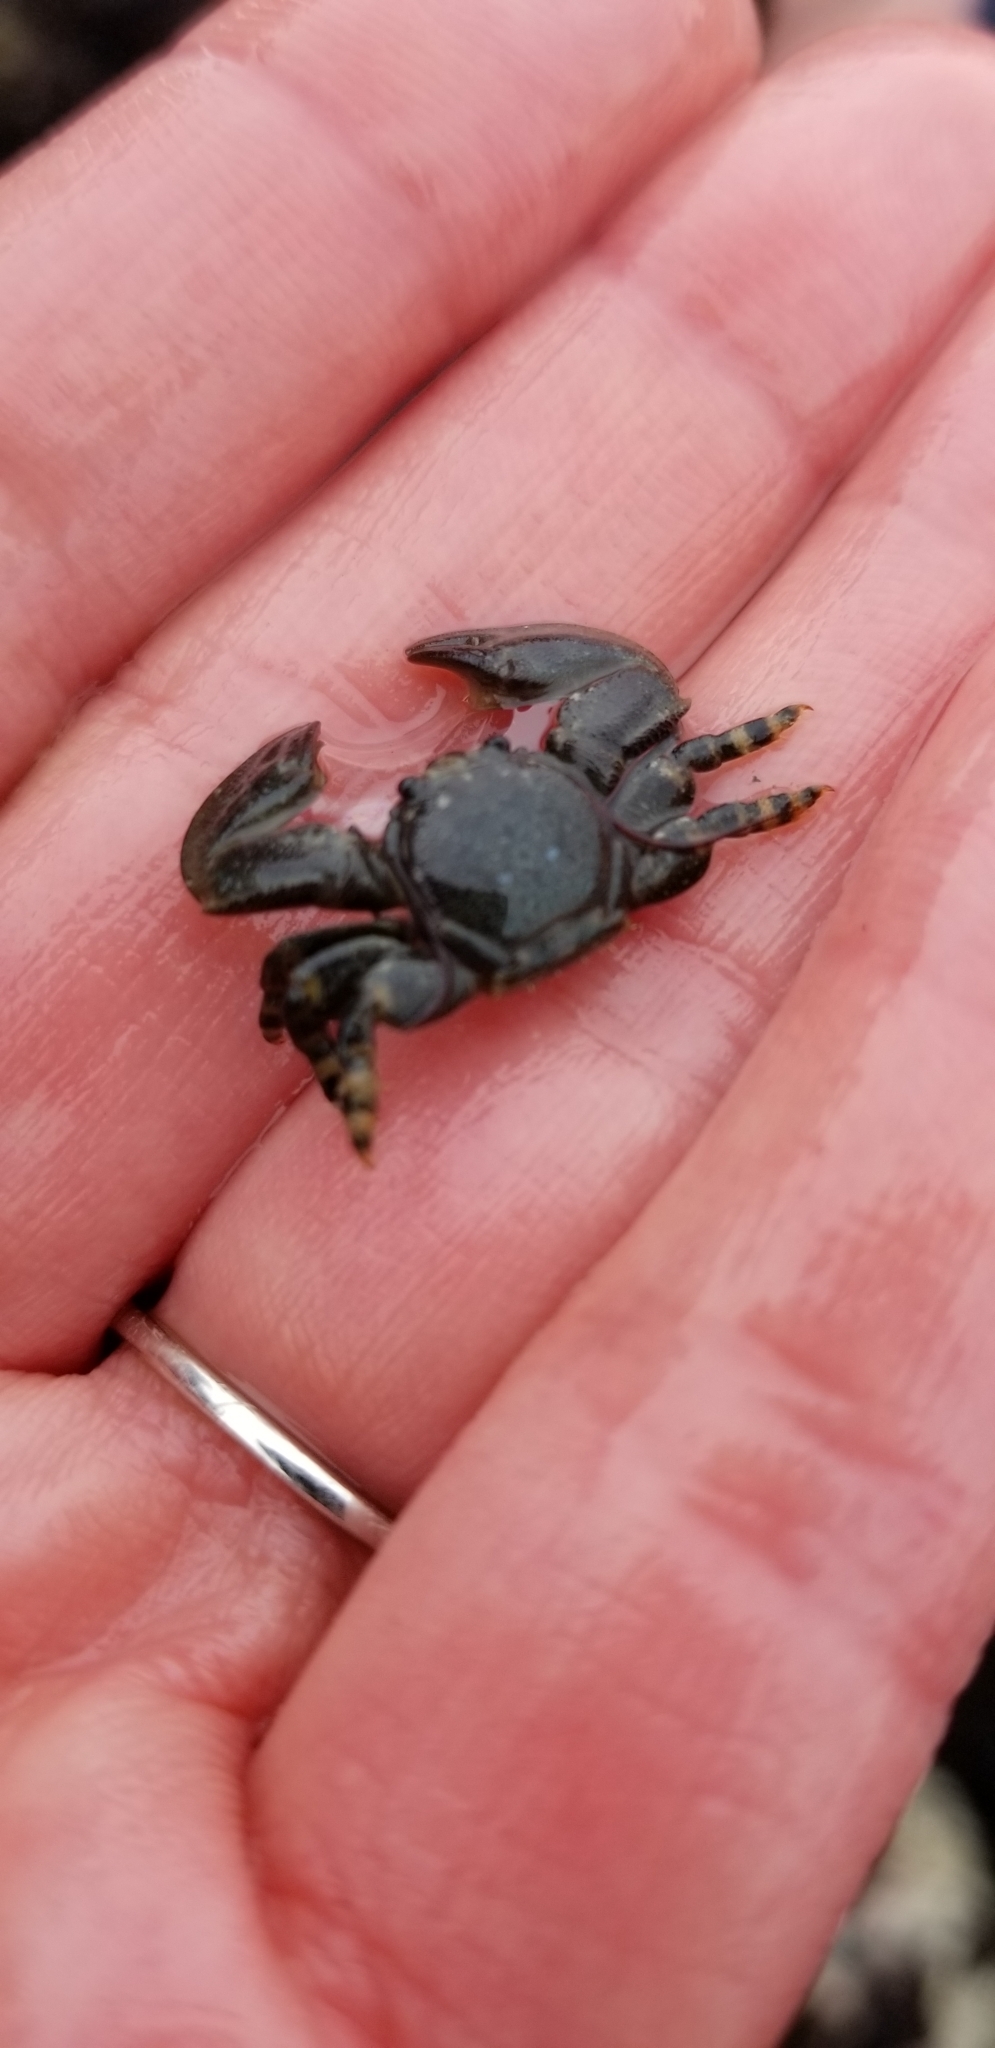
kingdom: Animalia
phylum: Arthropoda
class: Malacostraca
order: Decapoda
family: Porcellanidae
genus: Petrolisthes
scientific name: Petrolisthes cinctipes
